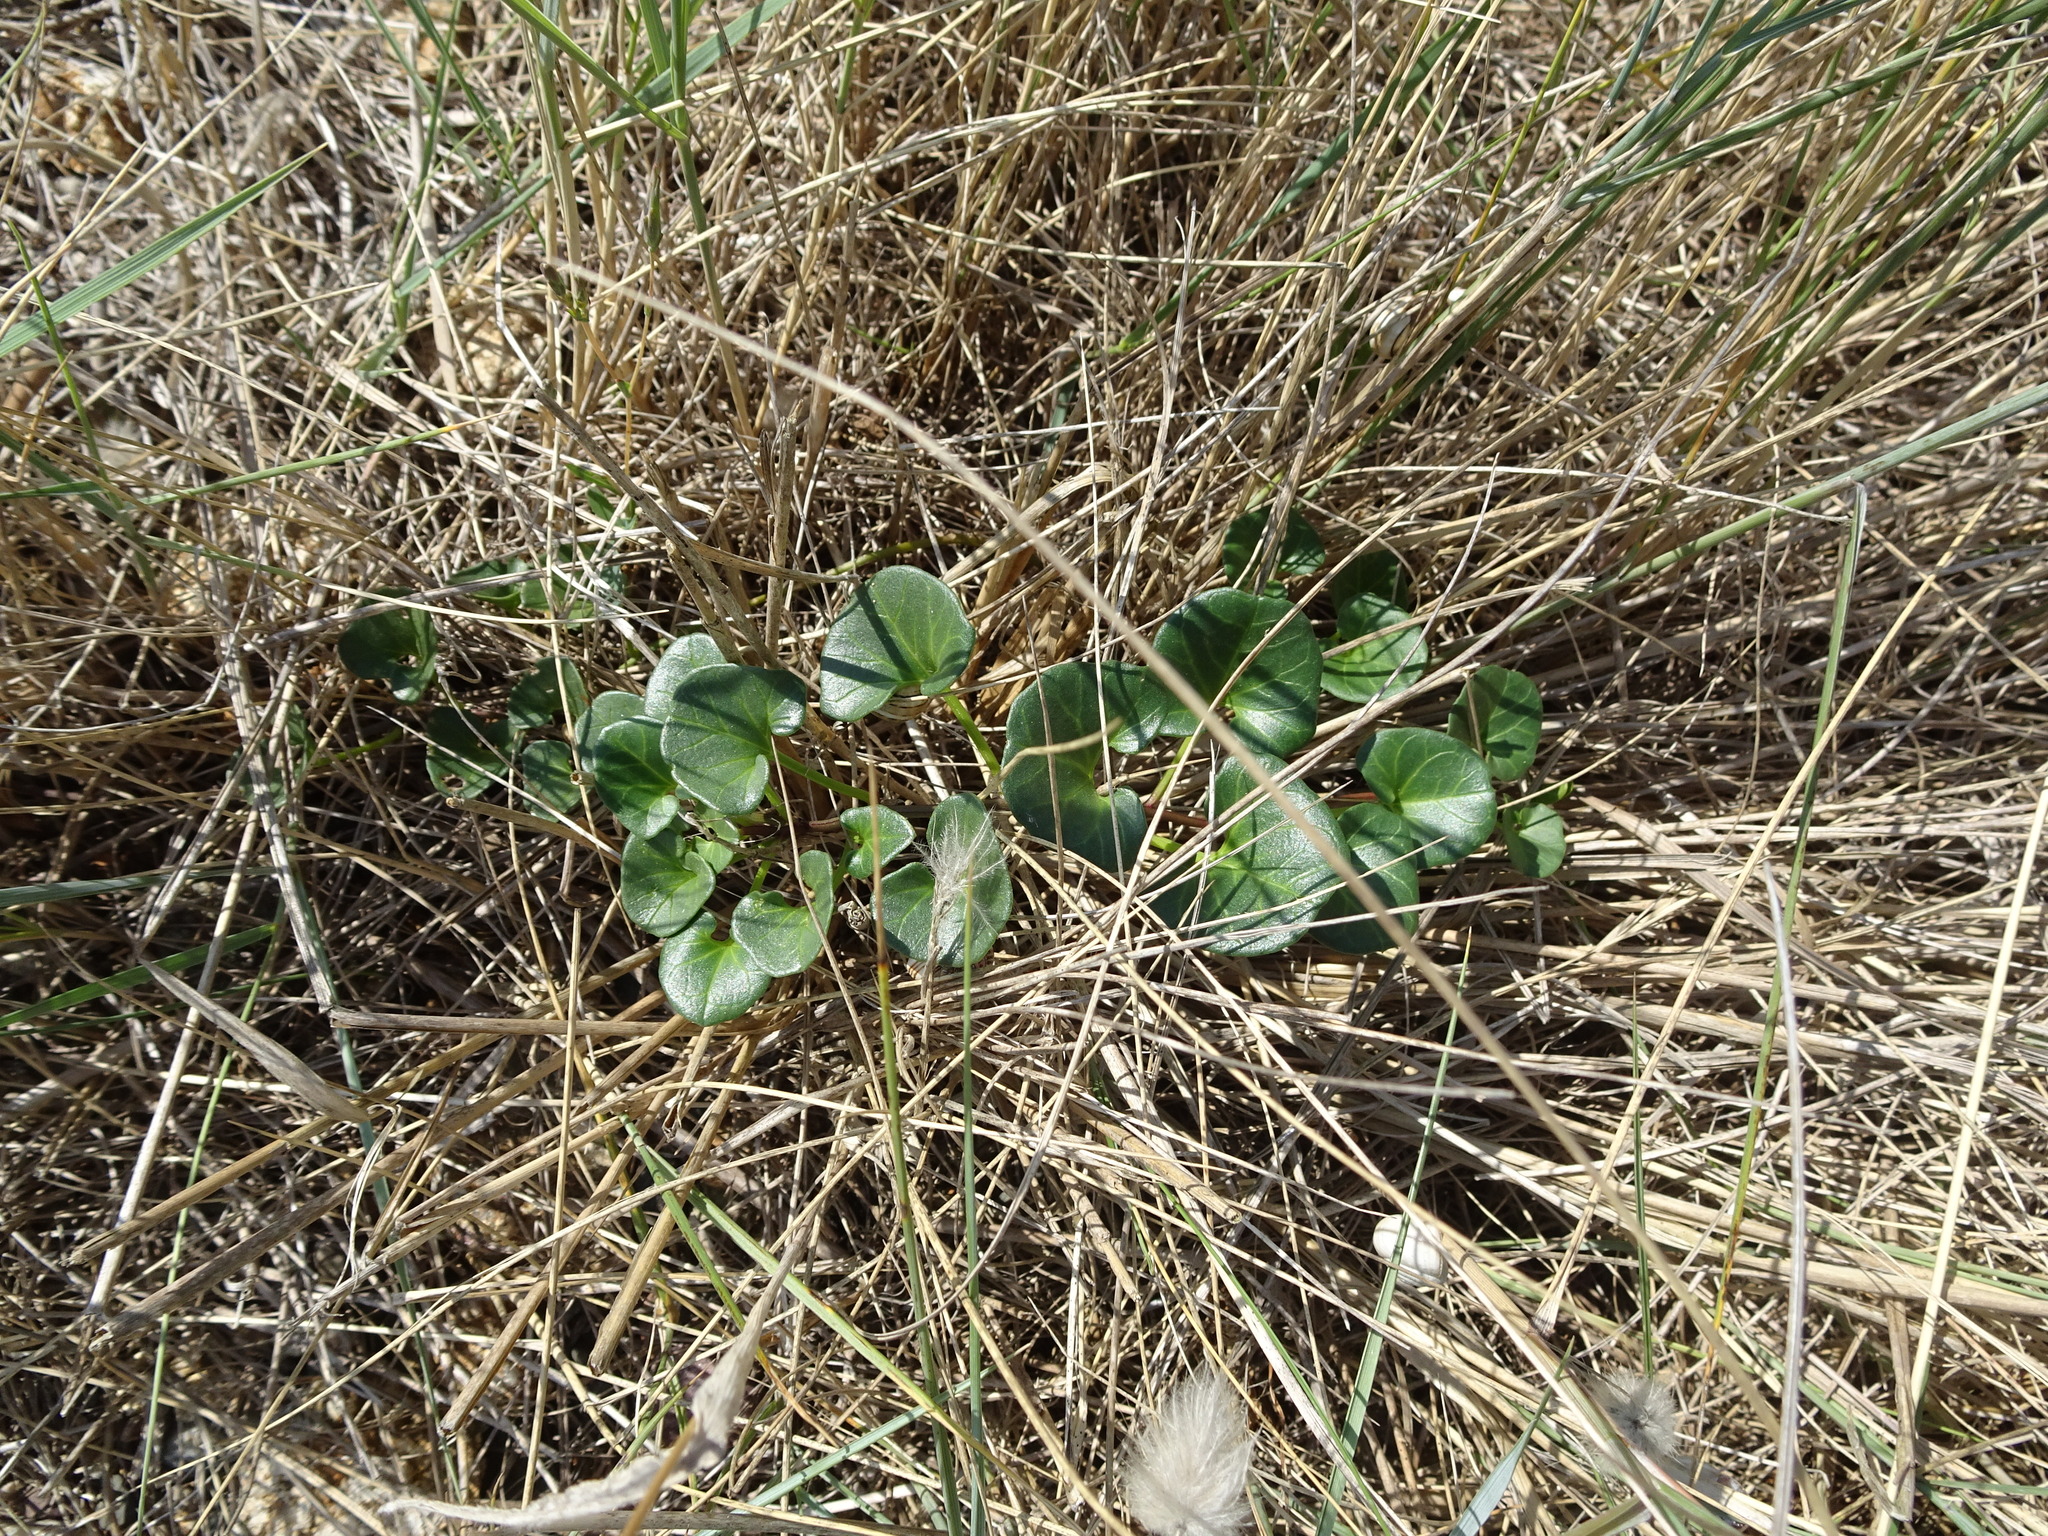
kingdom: Plantae
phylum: Tracheophyta
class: Magnoliopsida
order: Solanales
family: Convolvulaceae
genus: Calystegia
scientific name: Calystegia soldanella
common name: Sea bindweed
